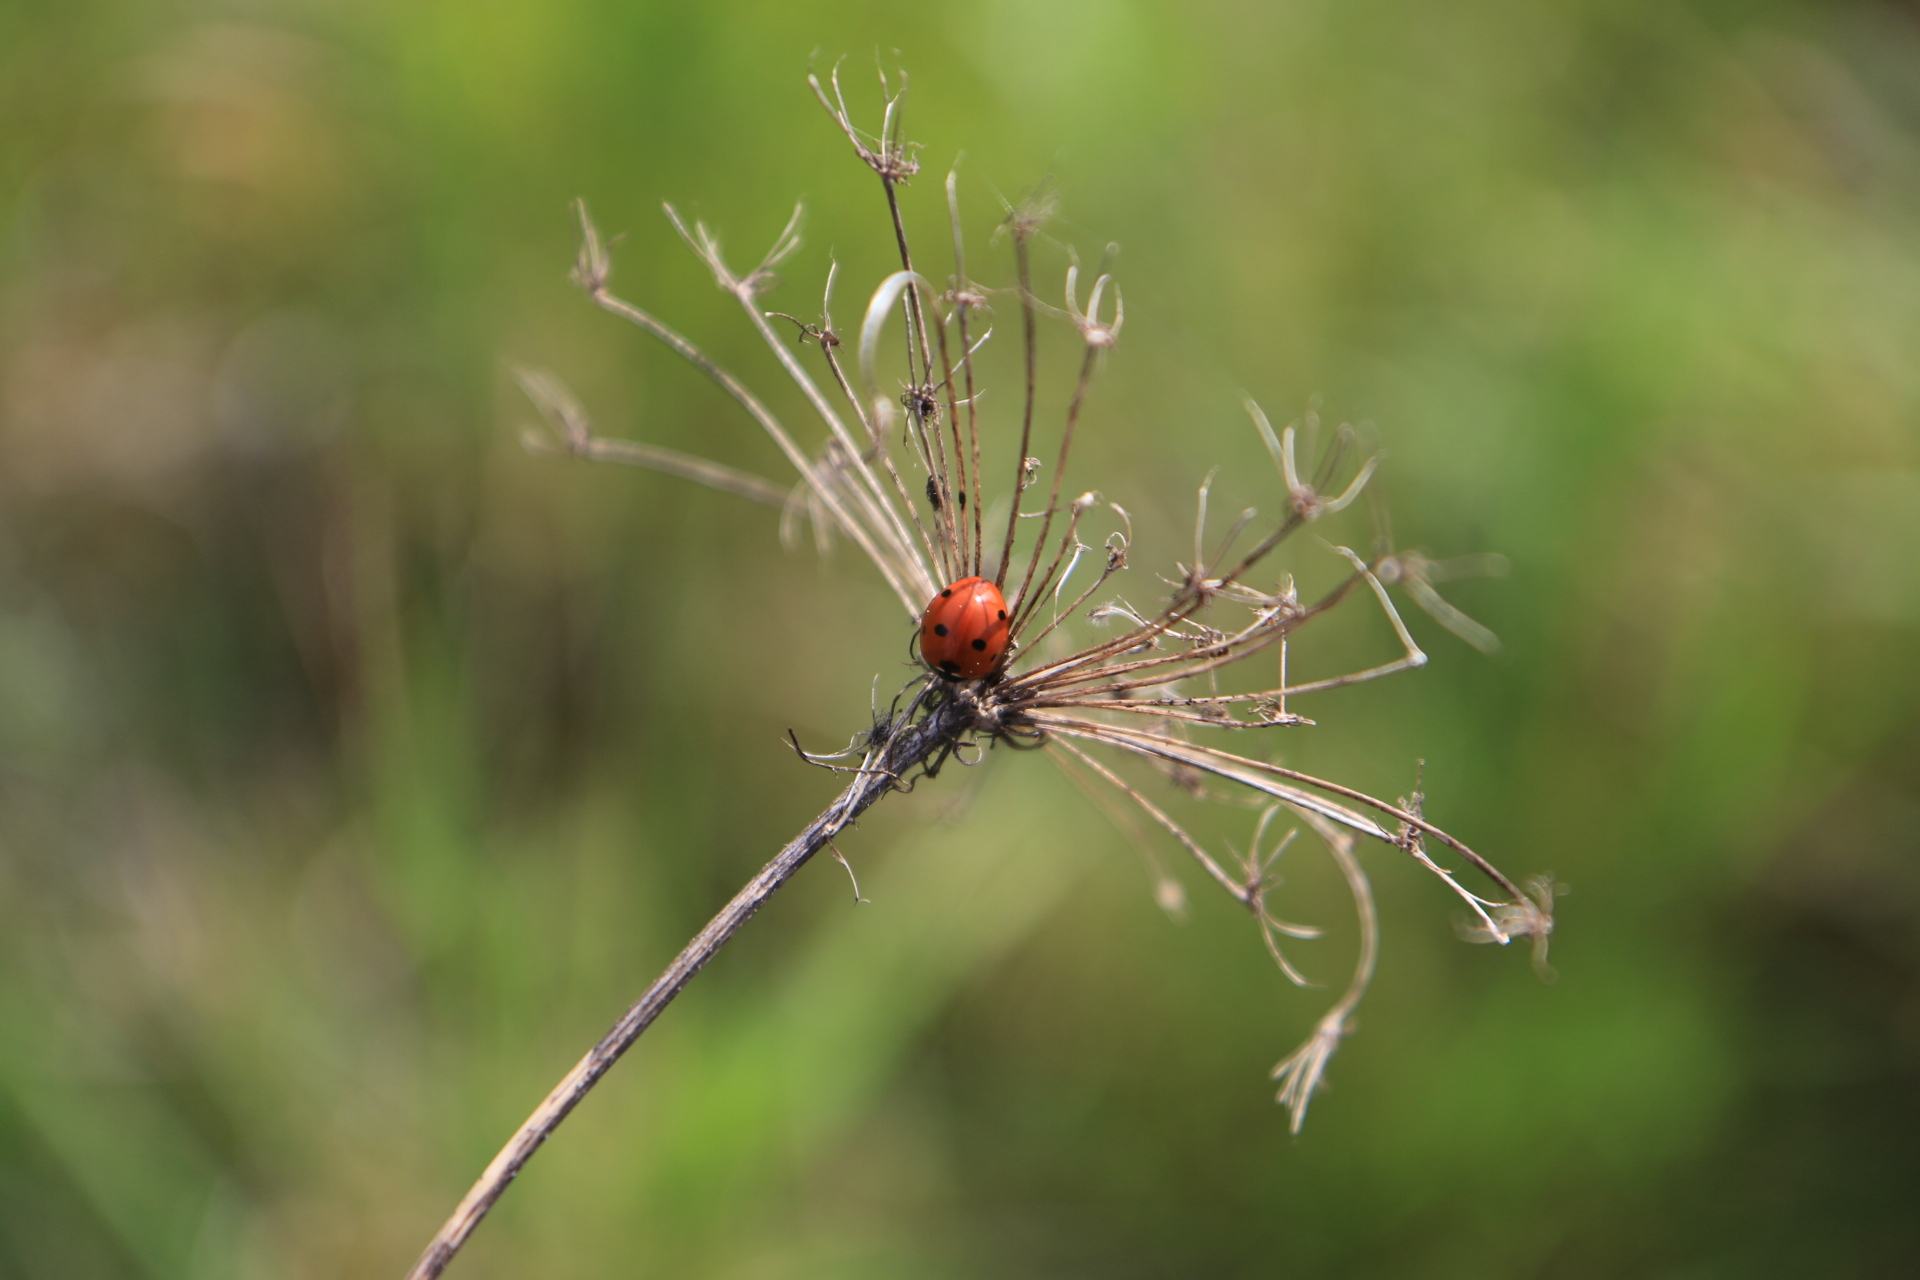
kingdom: Animalia
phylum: Arthropoda
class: Insecta
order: Coleoptera
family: Coccinellidae
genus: Coccinella
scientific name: Coccinella septempunctata
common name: Sevenspotted lady beetle
